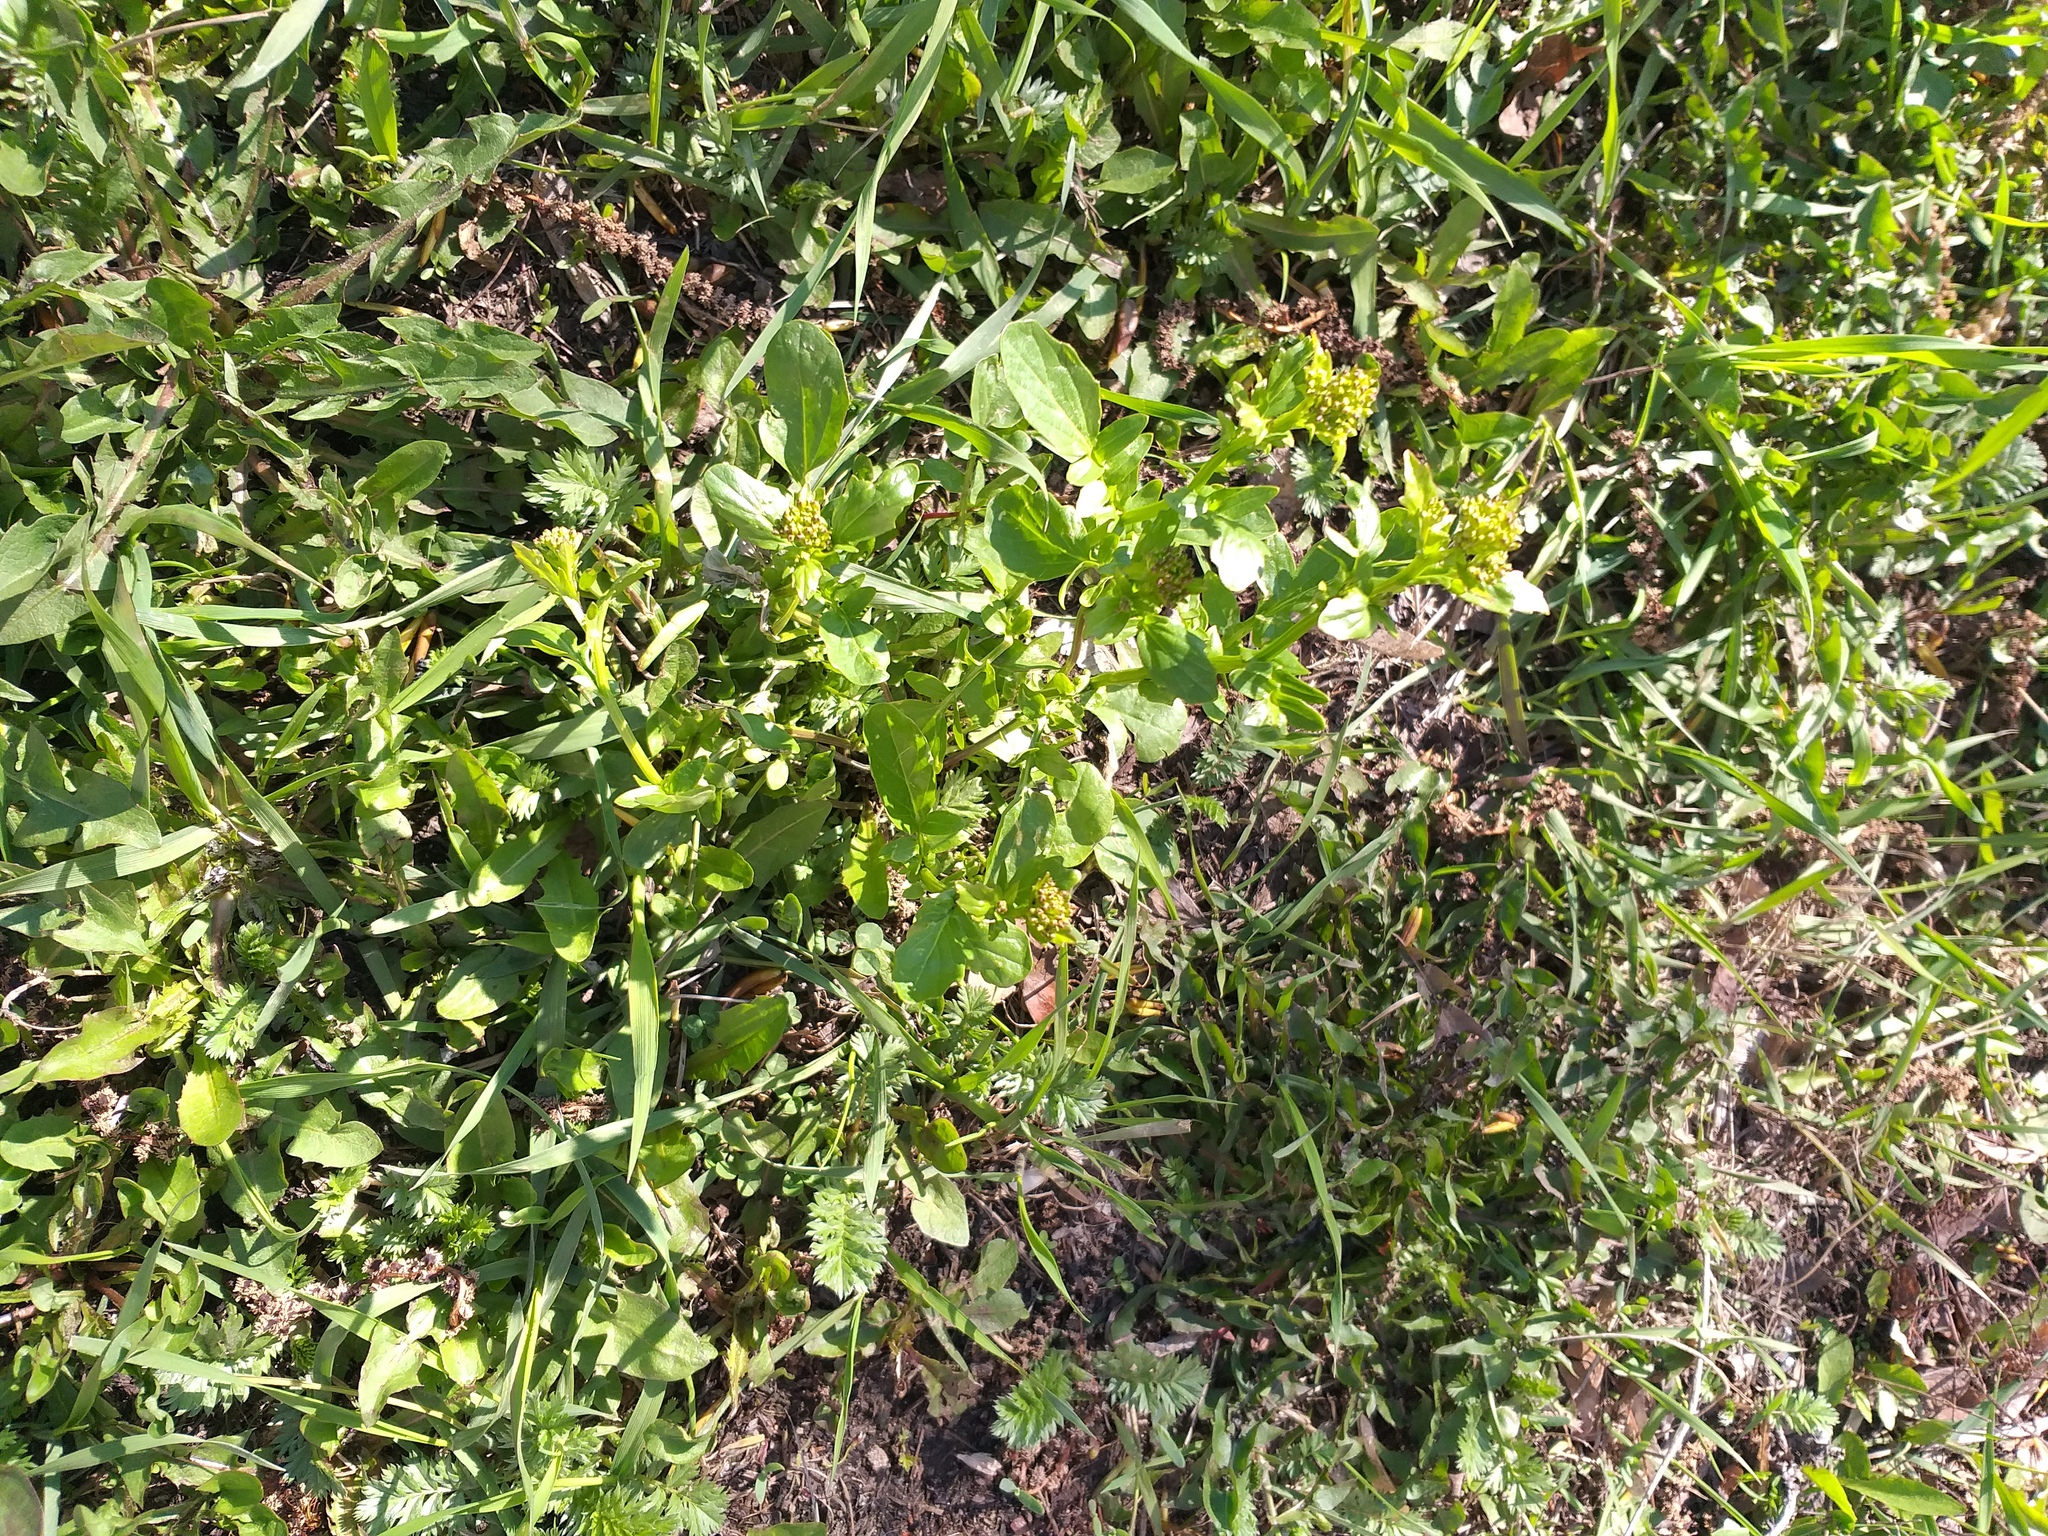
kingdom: Plantae
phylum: Tracheophyta
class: Magnoliopsida
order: Brassicales
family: Brassicaceae
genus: Barbarea
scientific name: Barbarea vulgaris
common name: Cressy-greens
